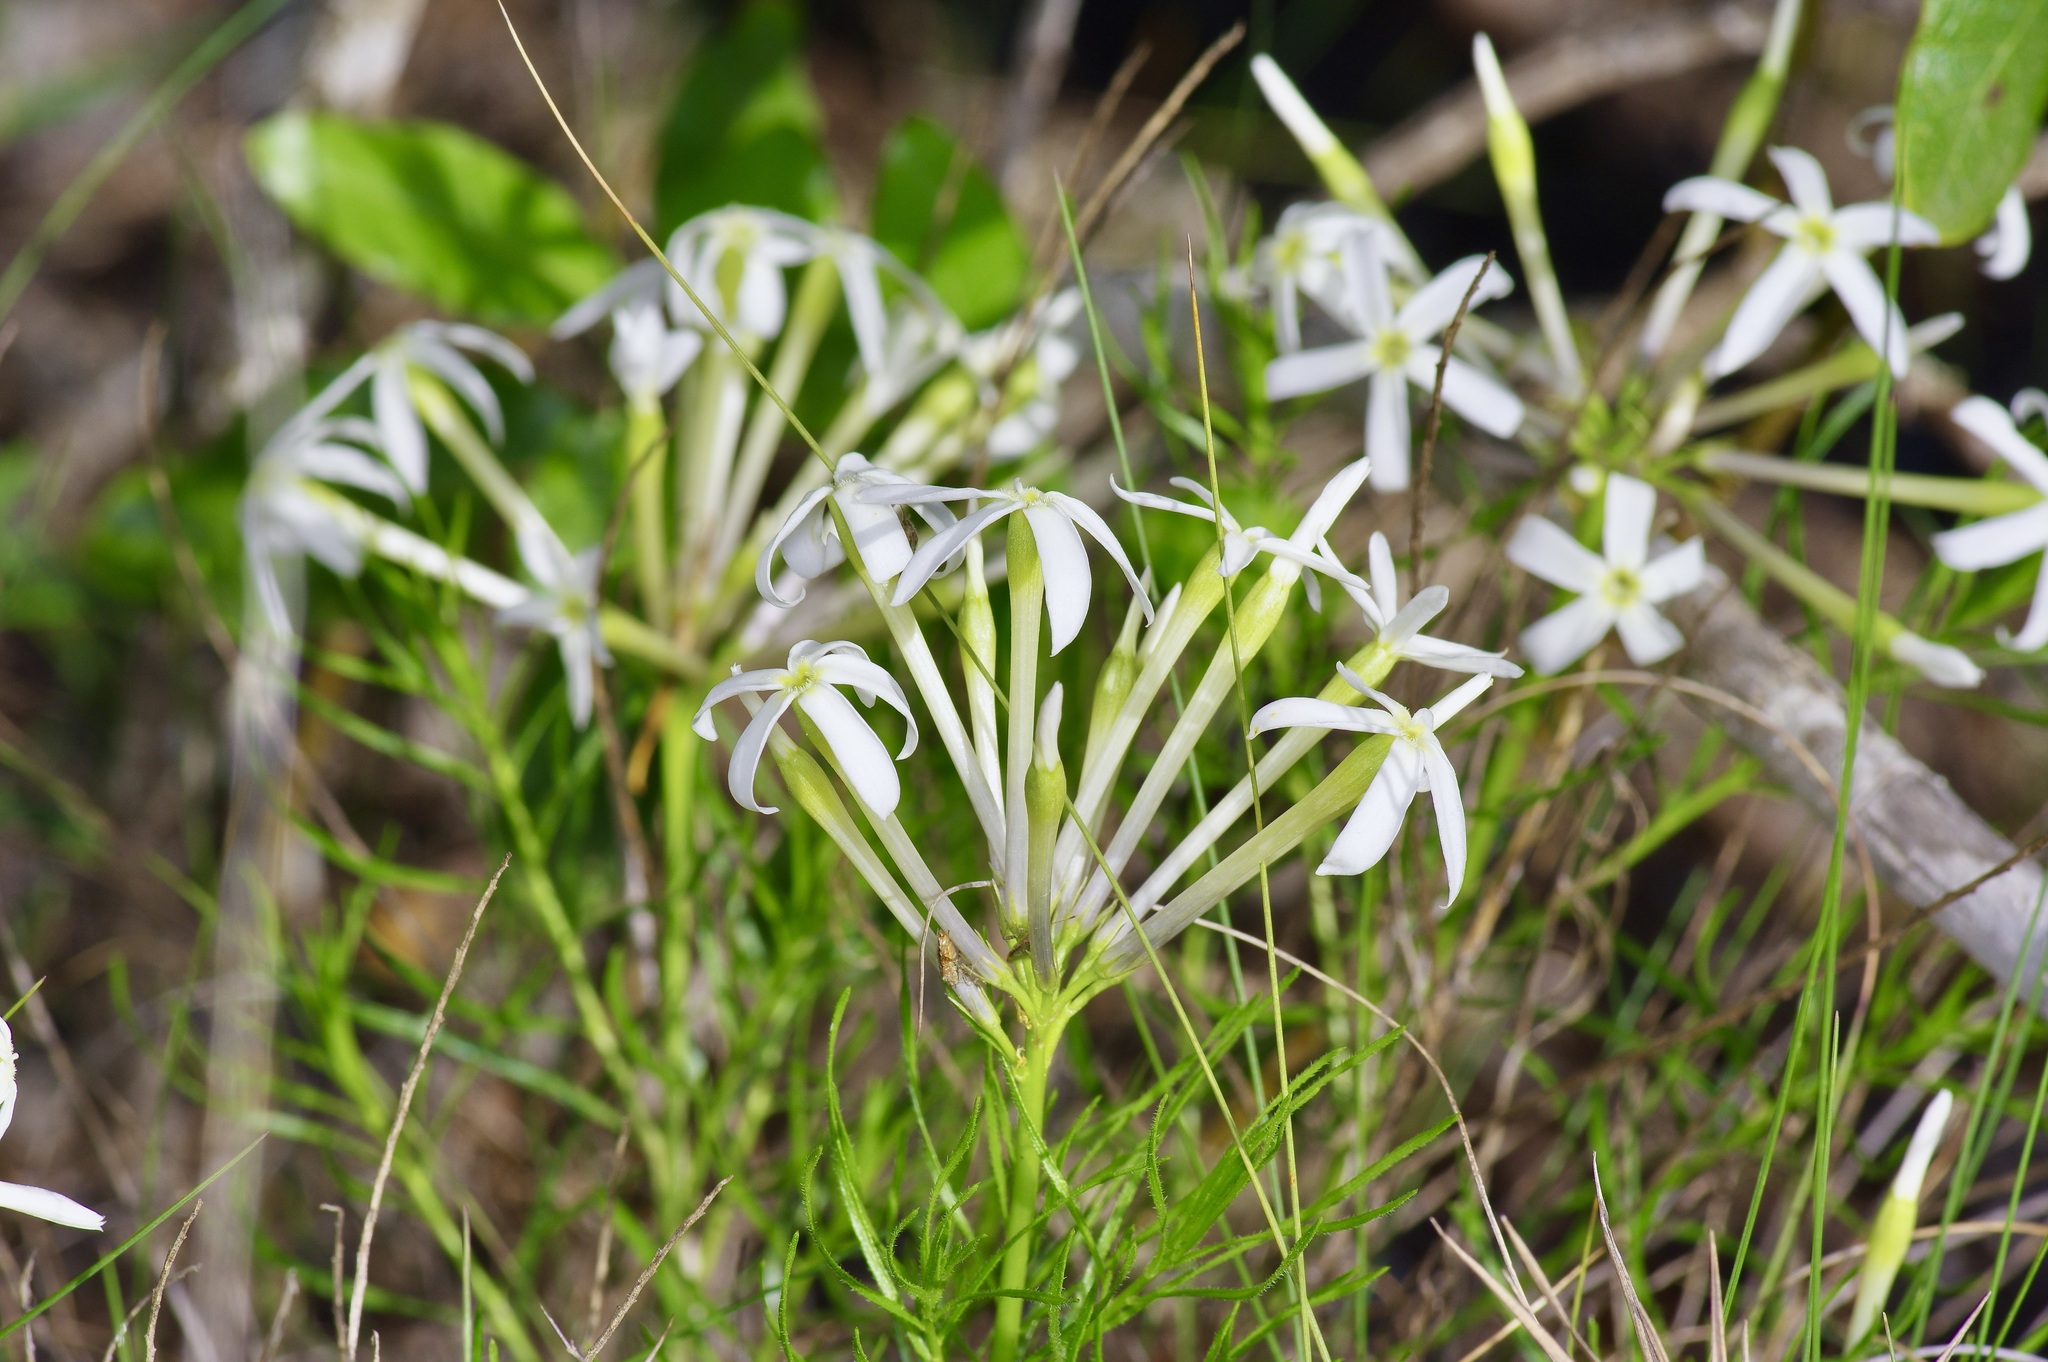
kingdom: Plantae
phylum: Tracheophyta
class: Magnoliopsida
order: Gentianales
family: Apocynaceae
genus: Amsonia
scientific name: Amsonia longiflora
